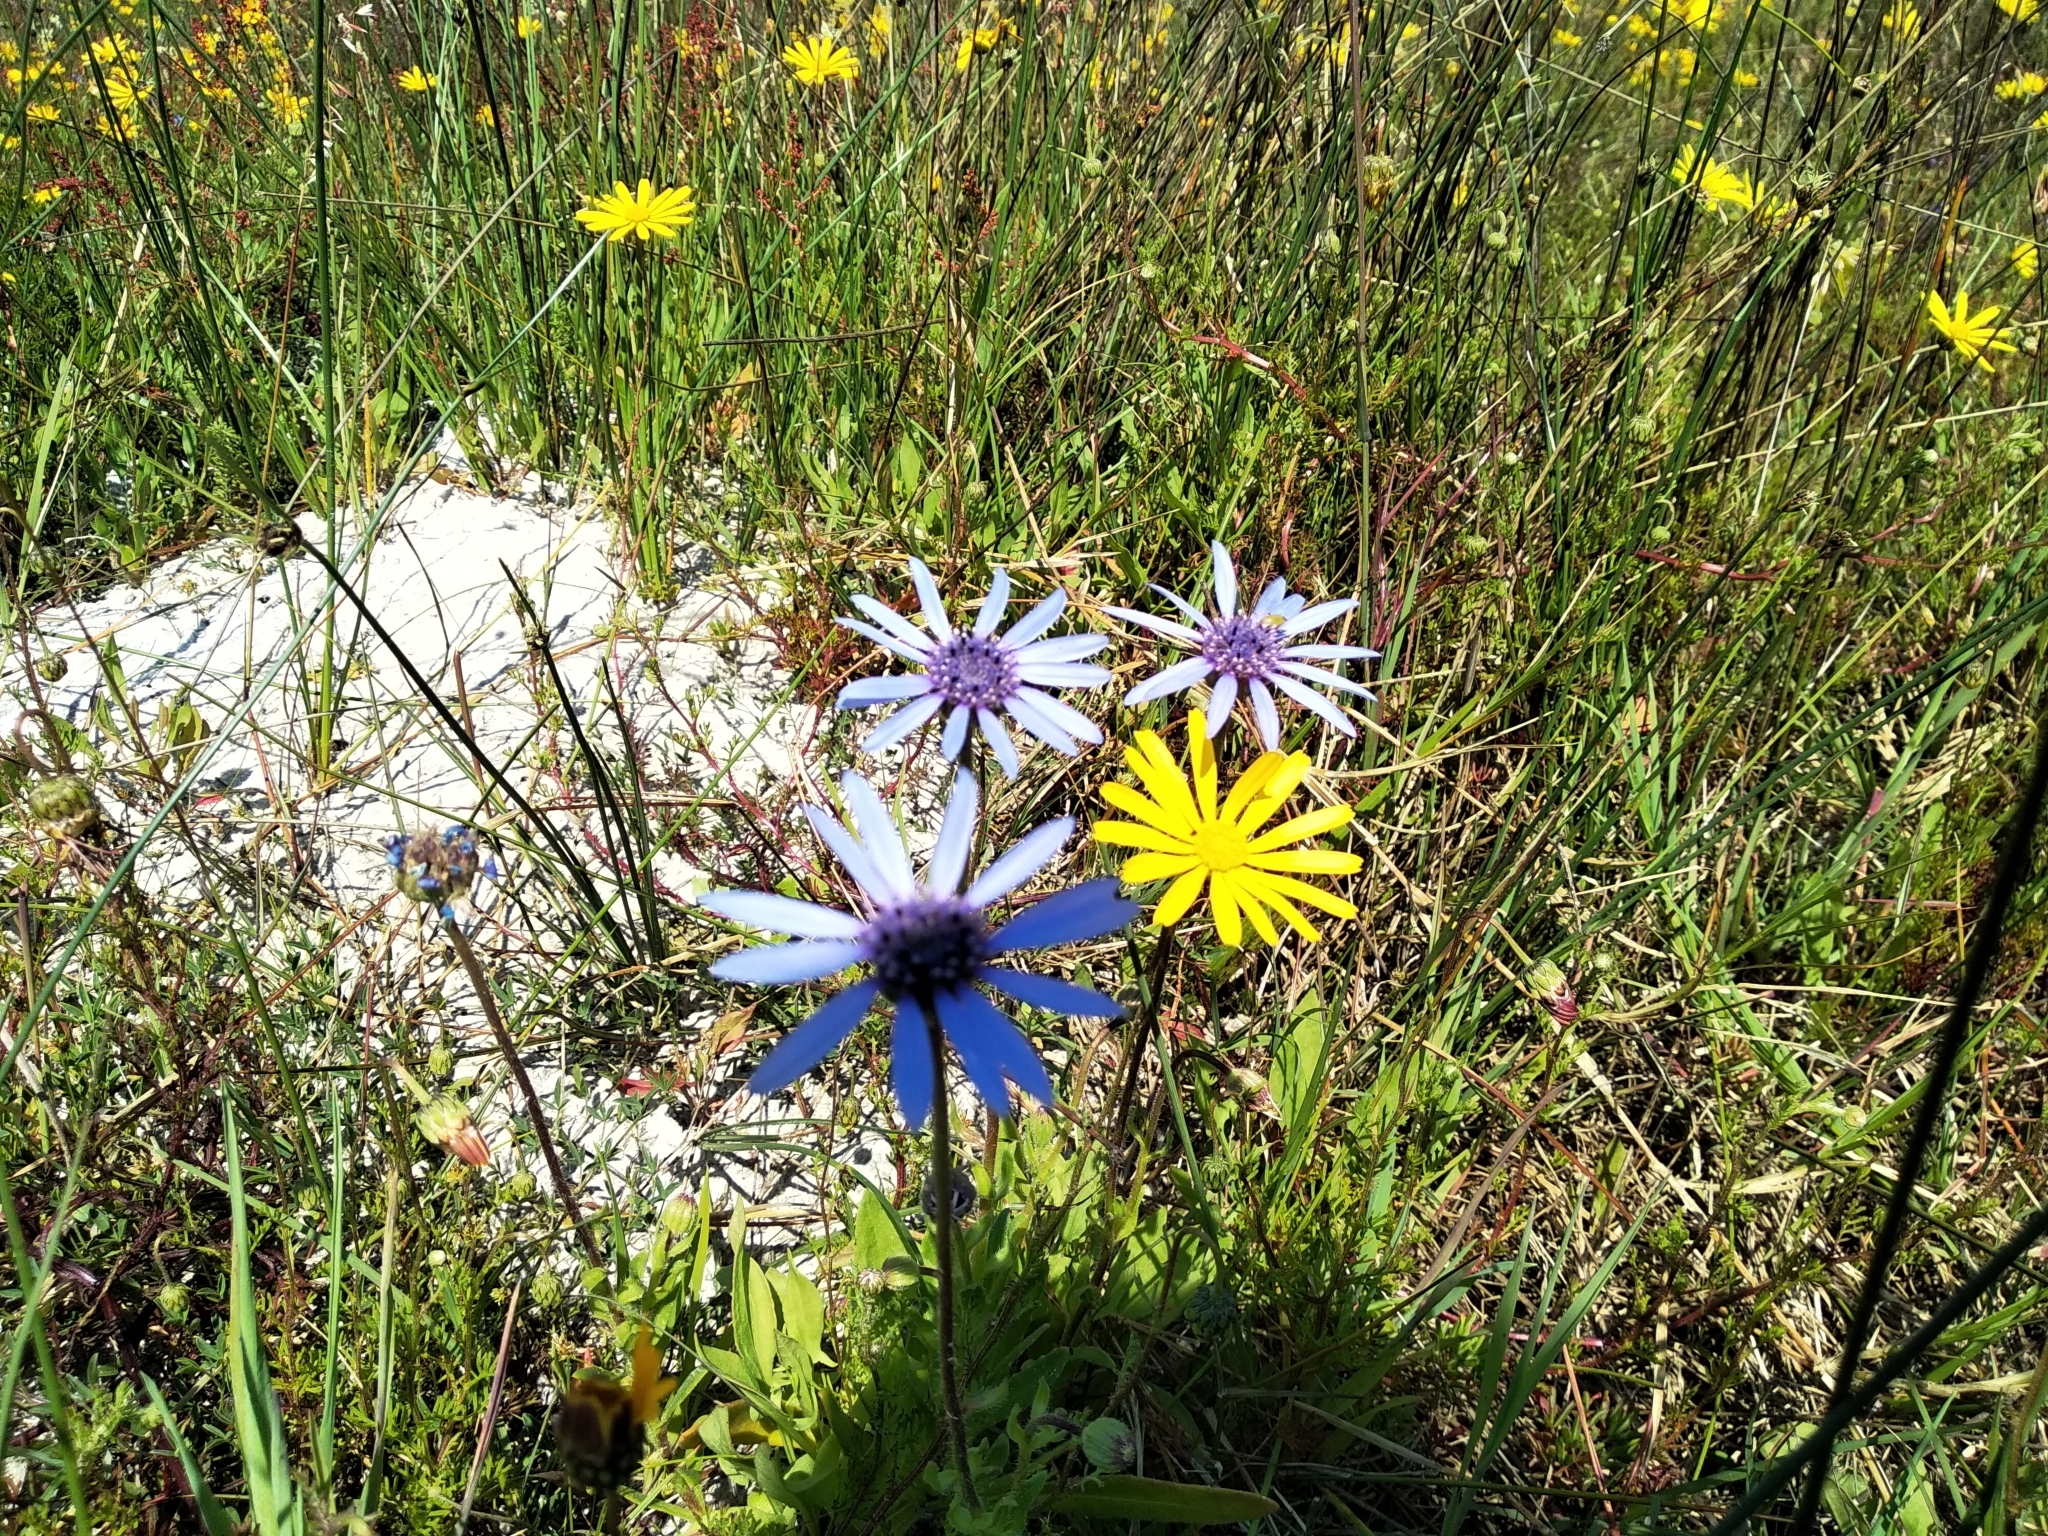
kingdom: Plantae
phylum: Tracheophyta
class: Magnoliopsida
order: Asterales
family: Asteraceae
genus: Felicia
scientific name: Felicia heterophylla
